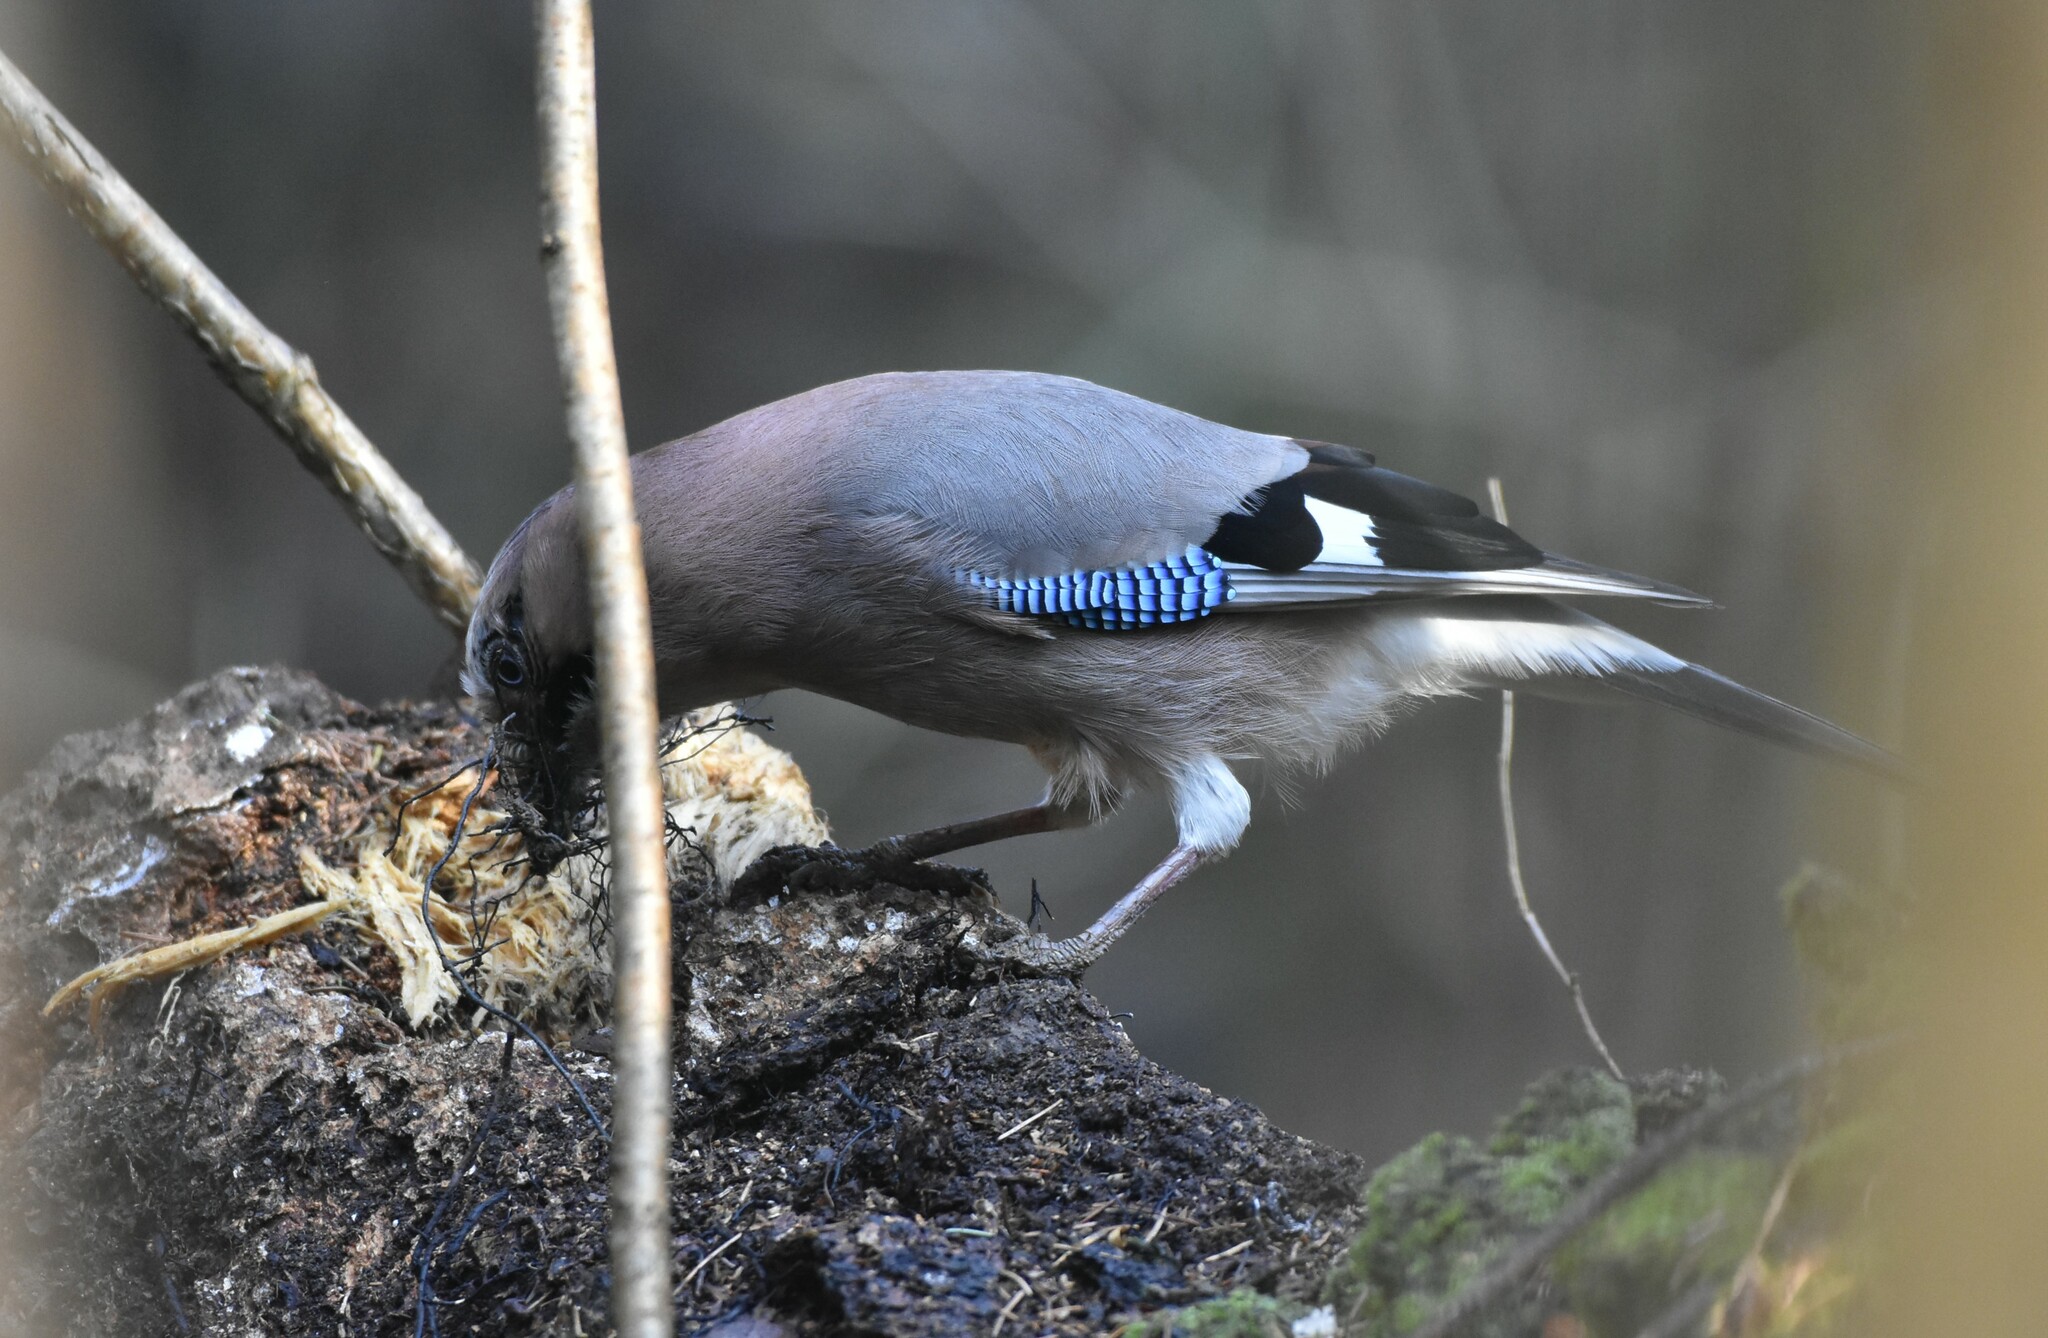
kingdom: Animalia
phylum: Chordata
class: Aves
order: Passeriformes
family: Corvidae
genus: Garrulus
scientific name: Garrulus glandarius
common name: Eurasian jay
